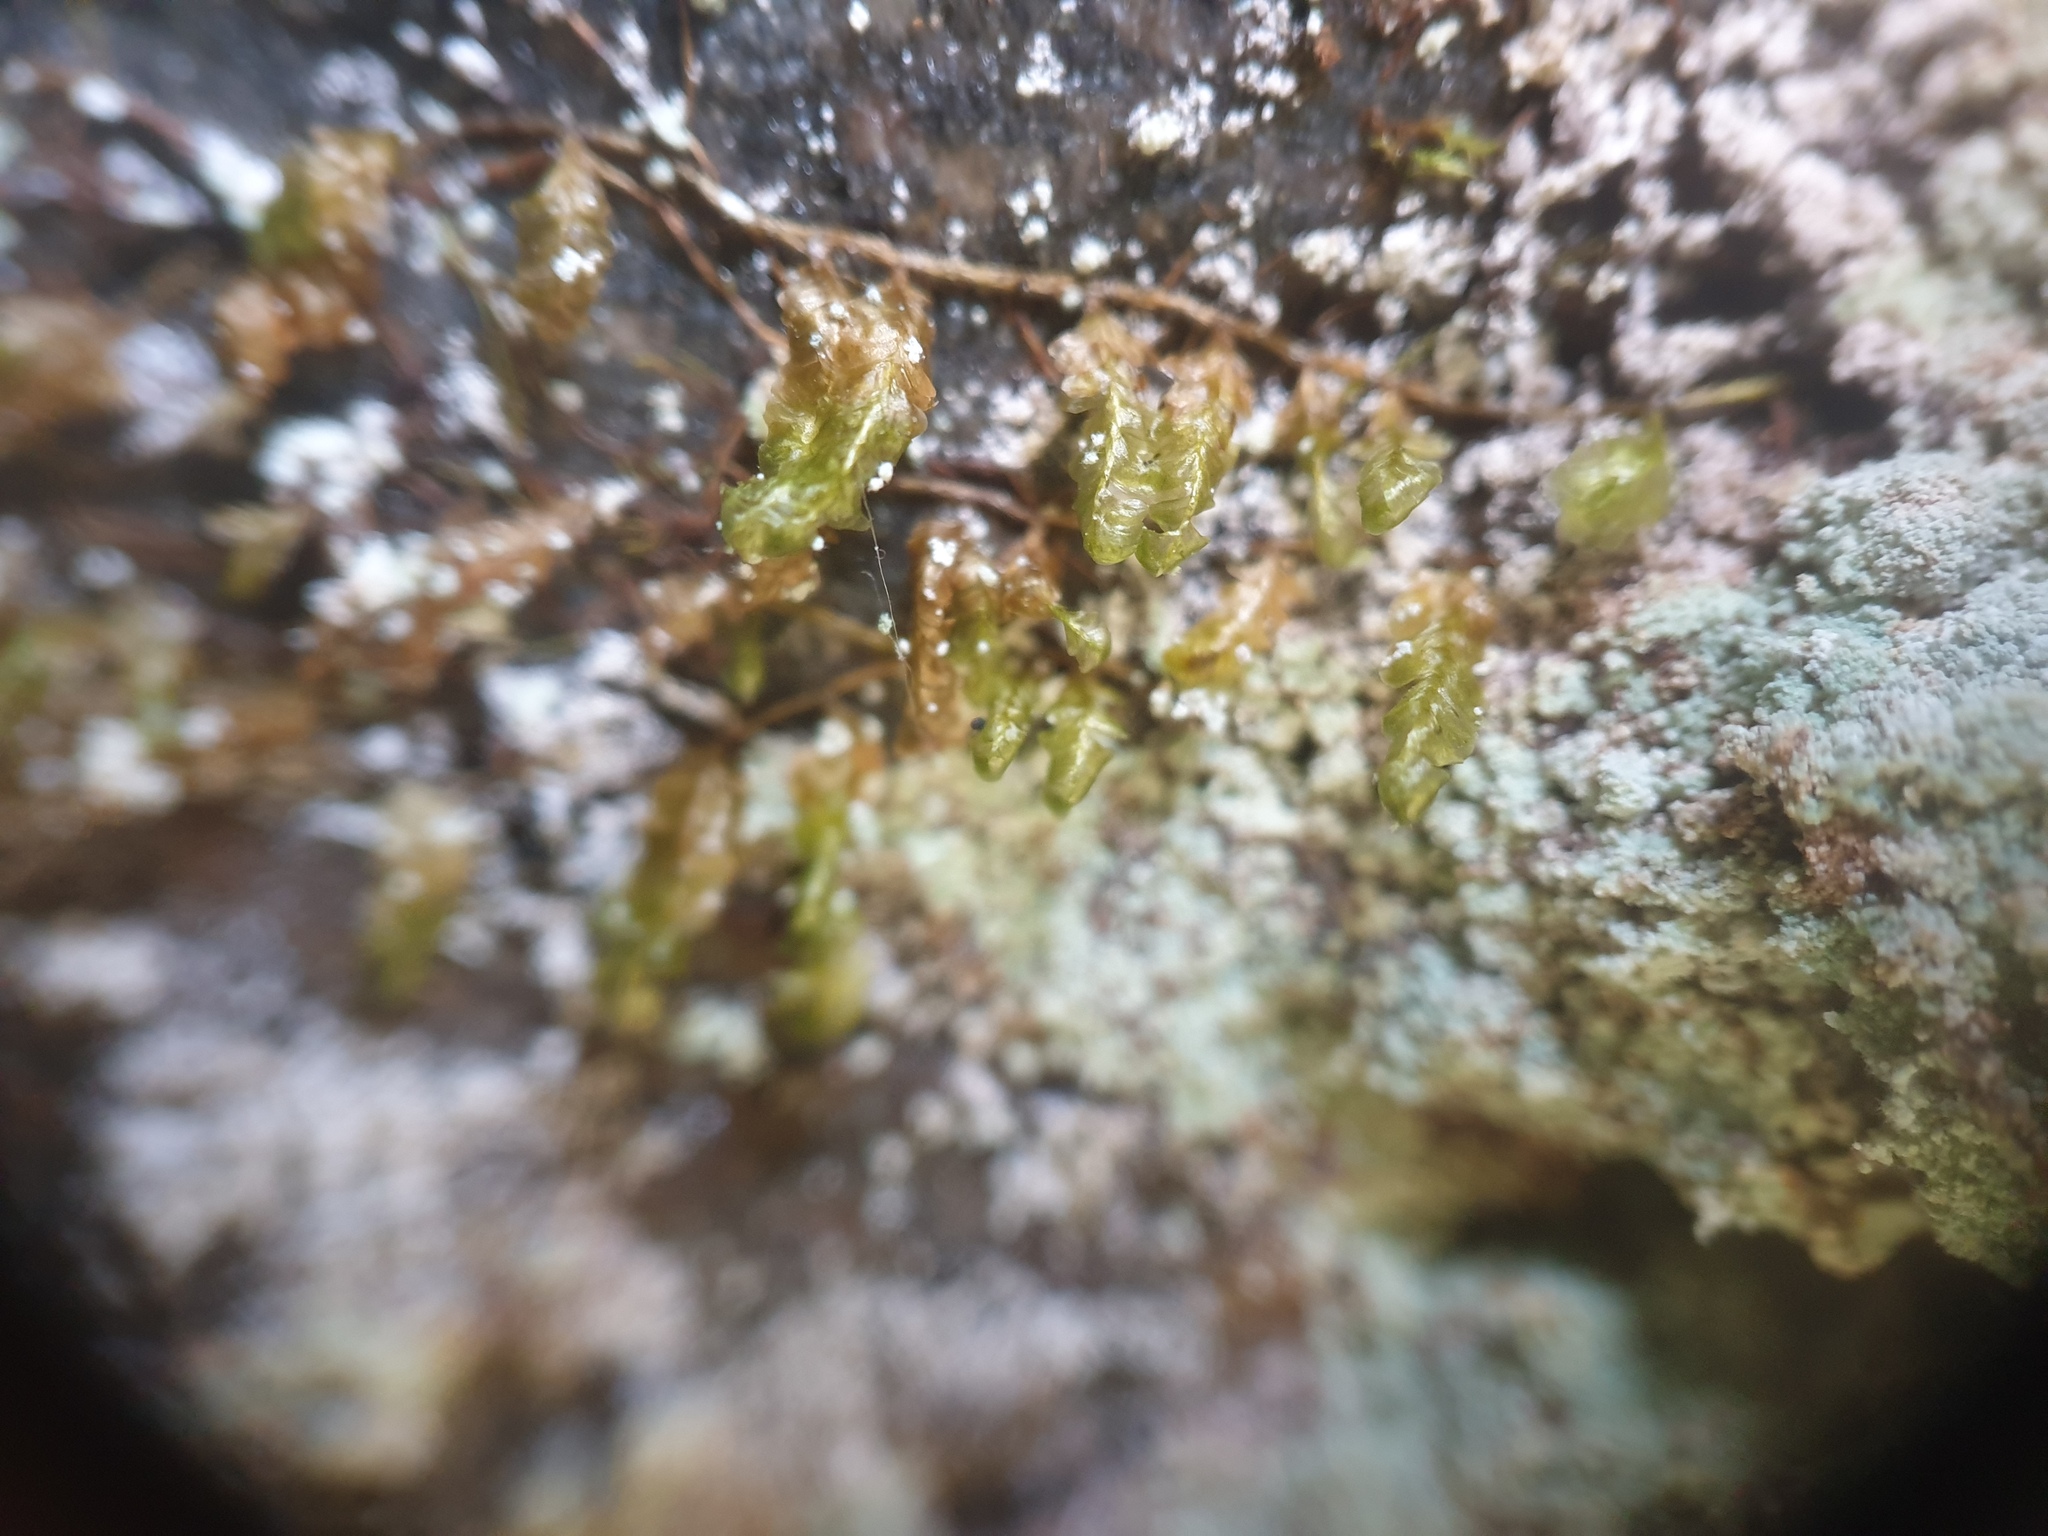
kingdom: Plantae
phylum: Bryophyta
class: Bryopsida
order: Hypnales
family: Neckeraceae
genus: Homalia
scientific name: Homalia trichomanoides
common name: Lime homalia moss
